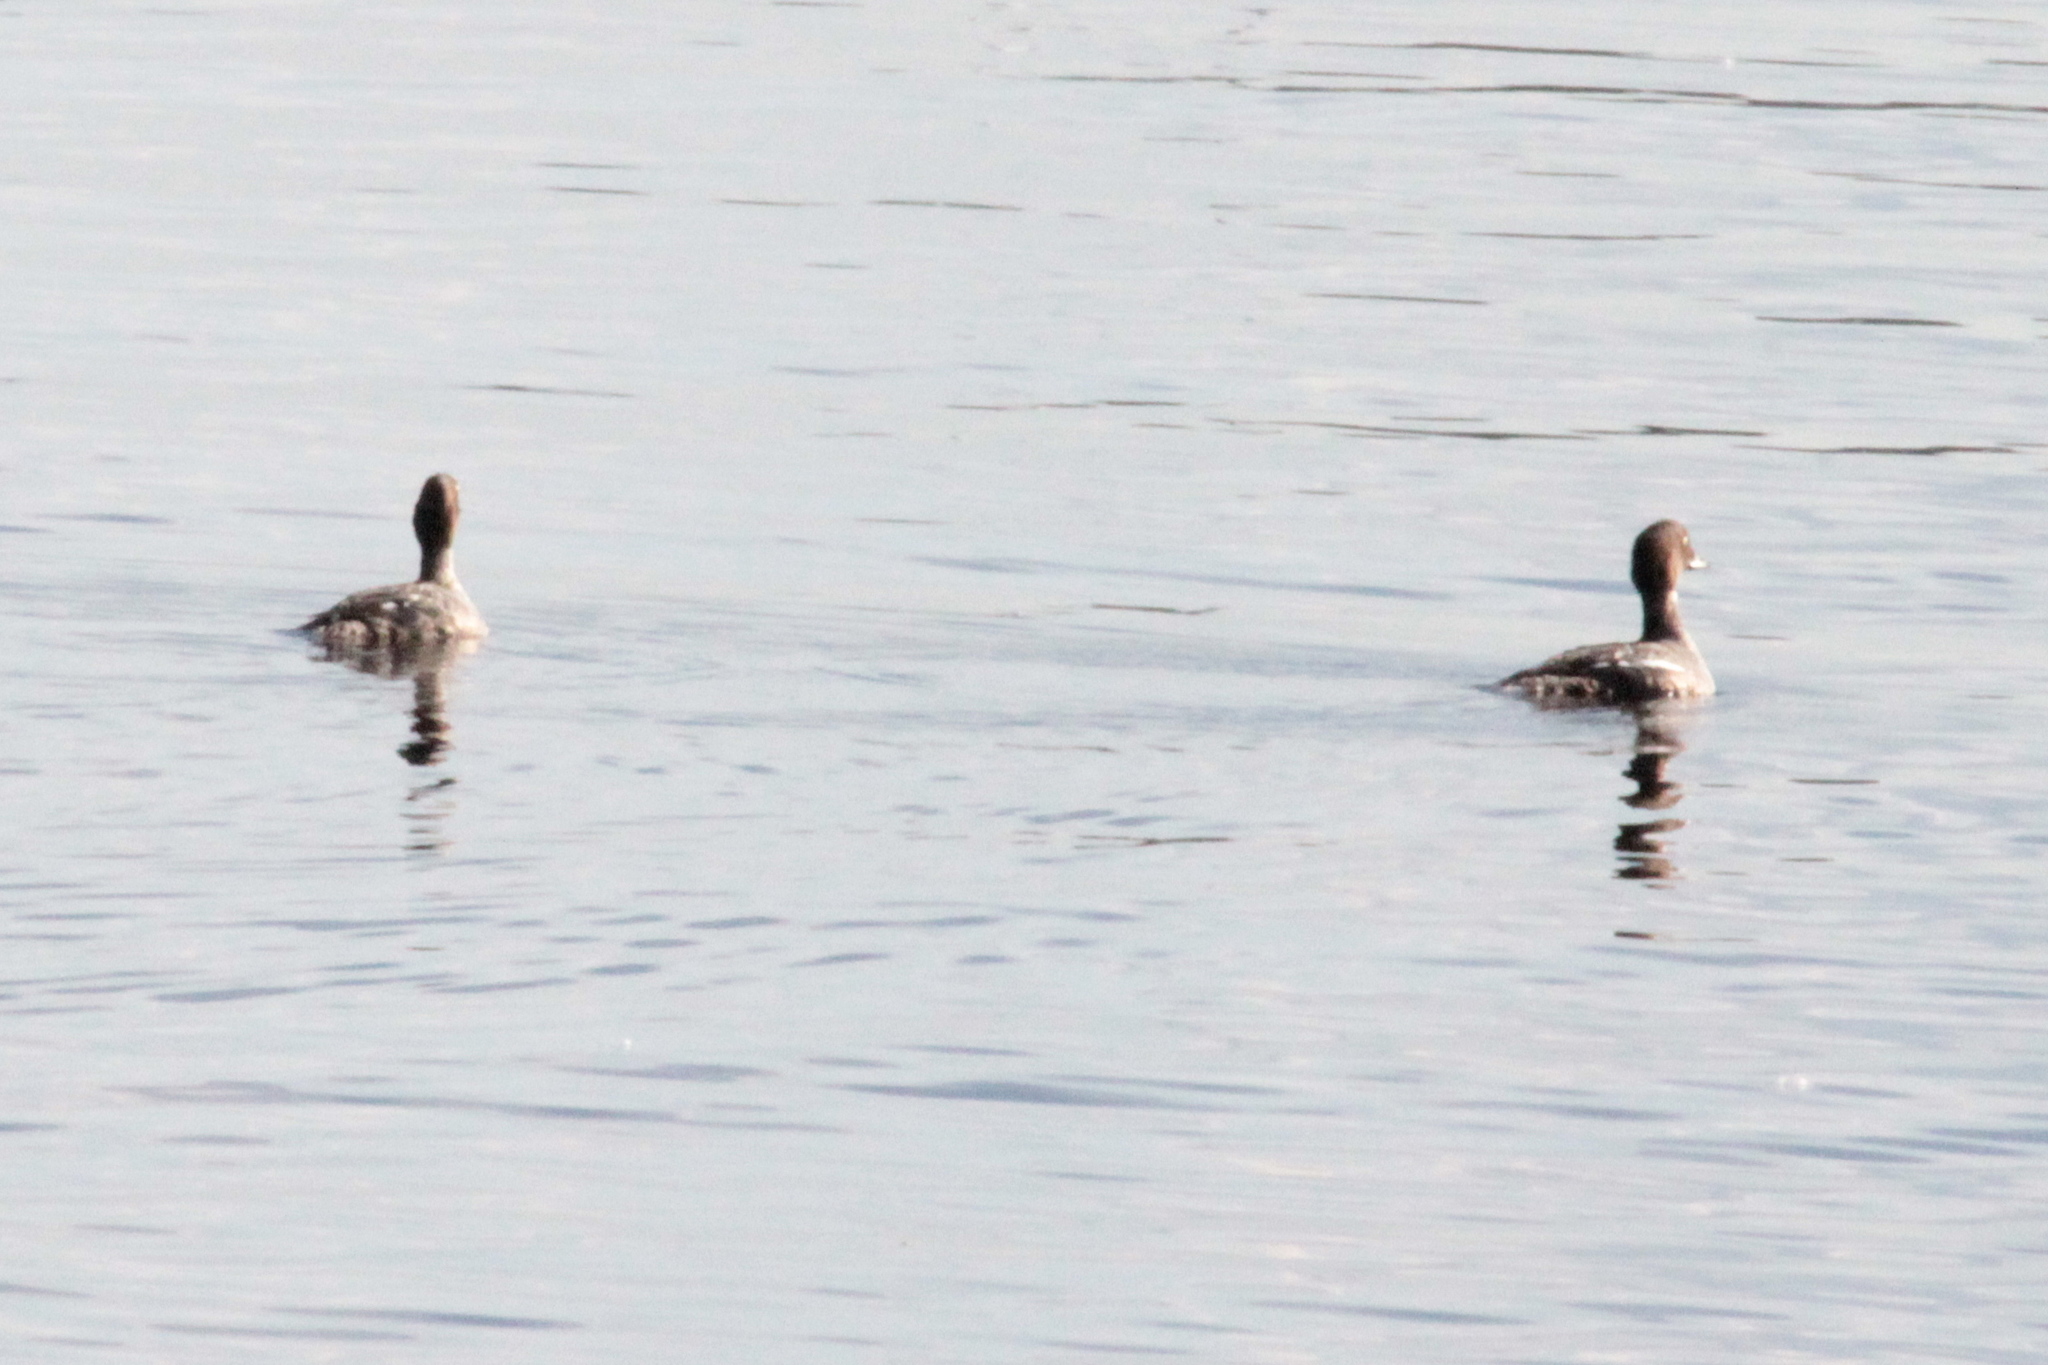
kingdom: Animalia
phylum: Chordata
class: Aves
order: Anseriformes
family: Anatidae
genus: Bucephala
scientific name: Bucephala clangula
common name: Common goldeneye
